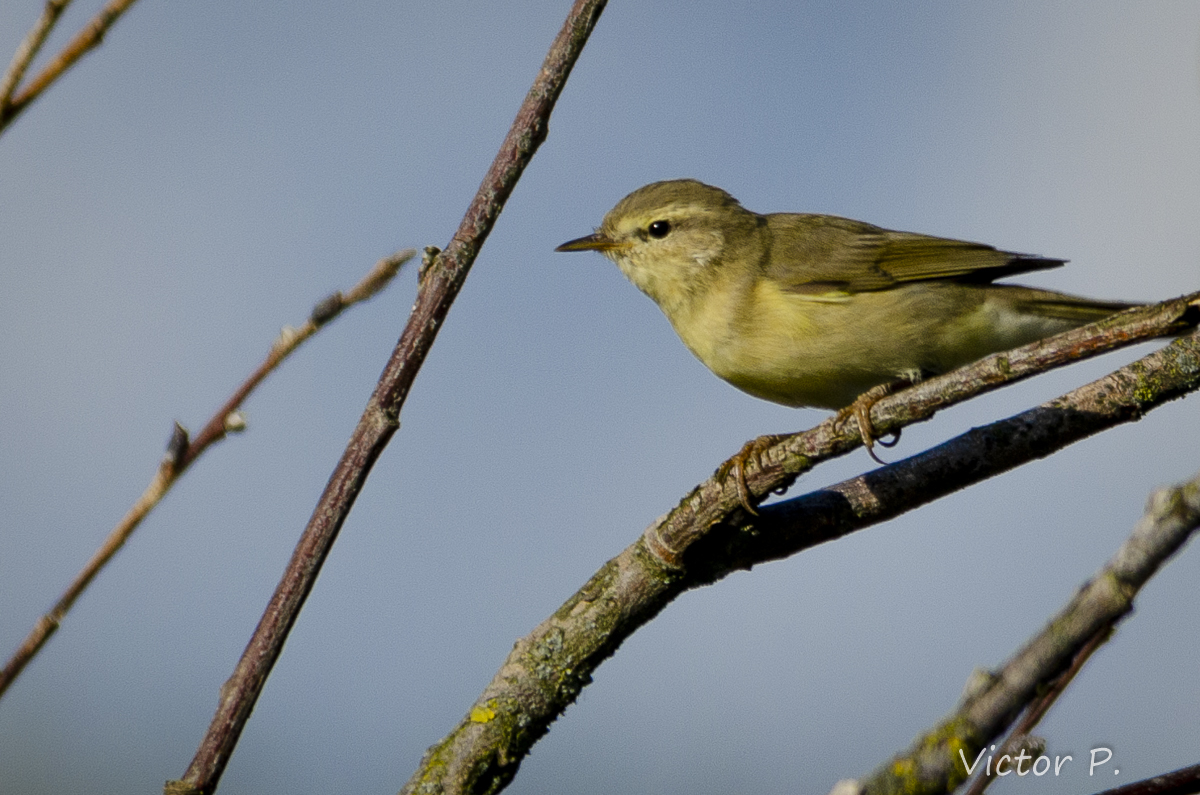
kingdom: Animalia
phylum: Chordata
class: Aves
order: Passeriformes
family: Phylloscopidae
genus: Phylloscopus
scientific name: Phylloscopus trochilus
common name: Willow warbler
